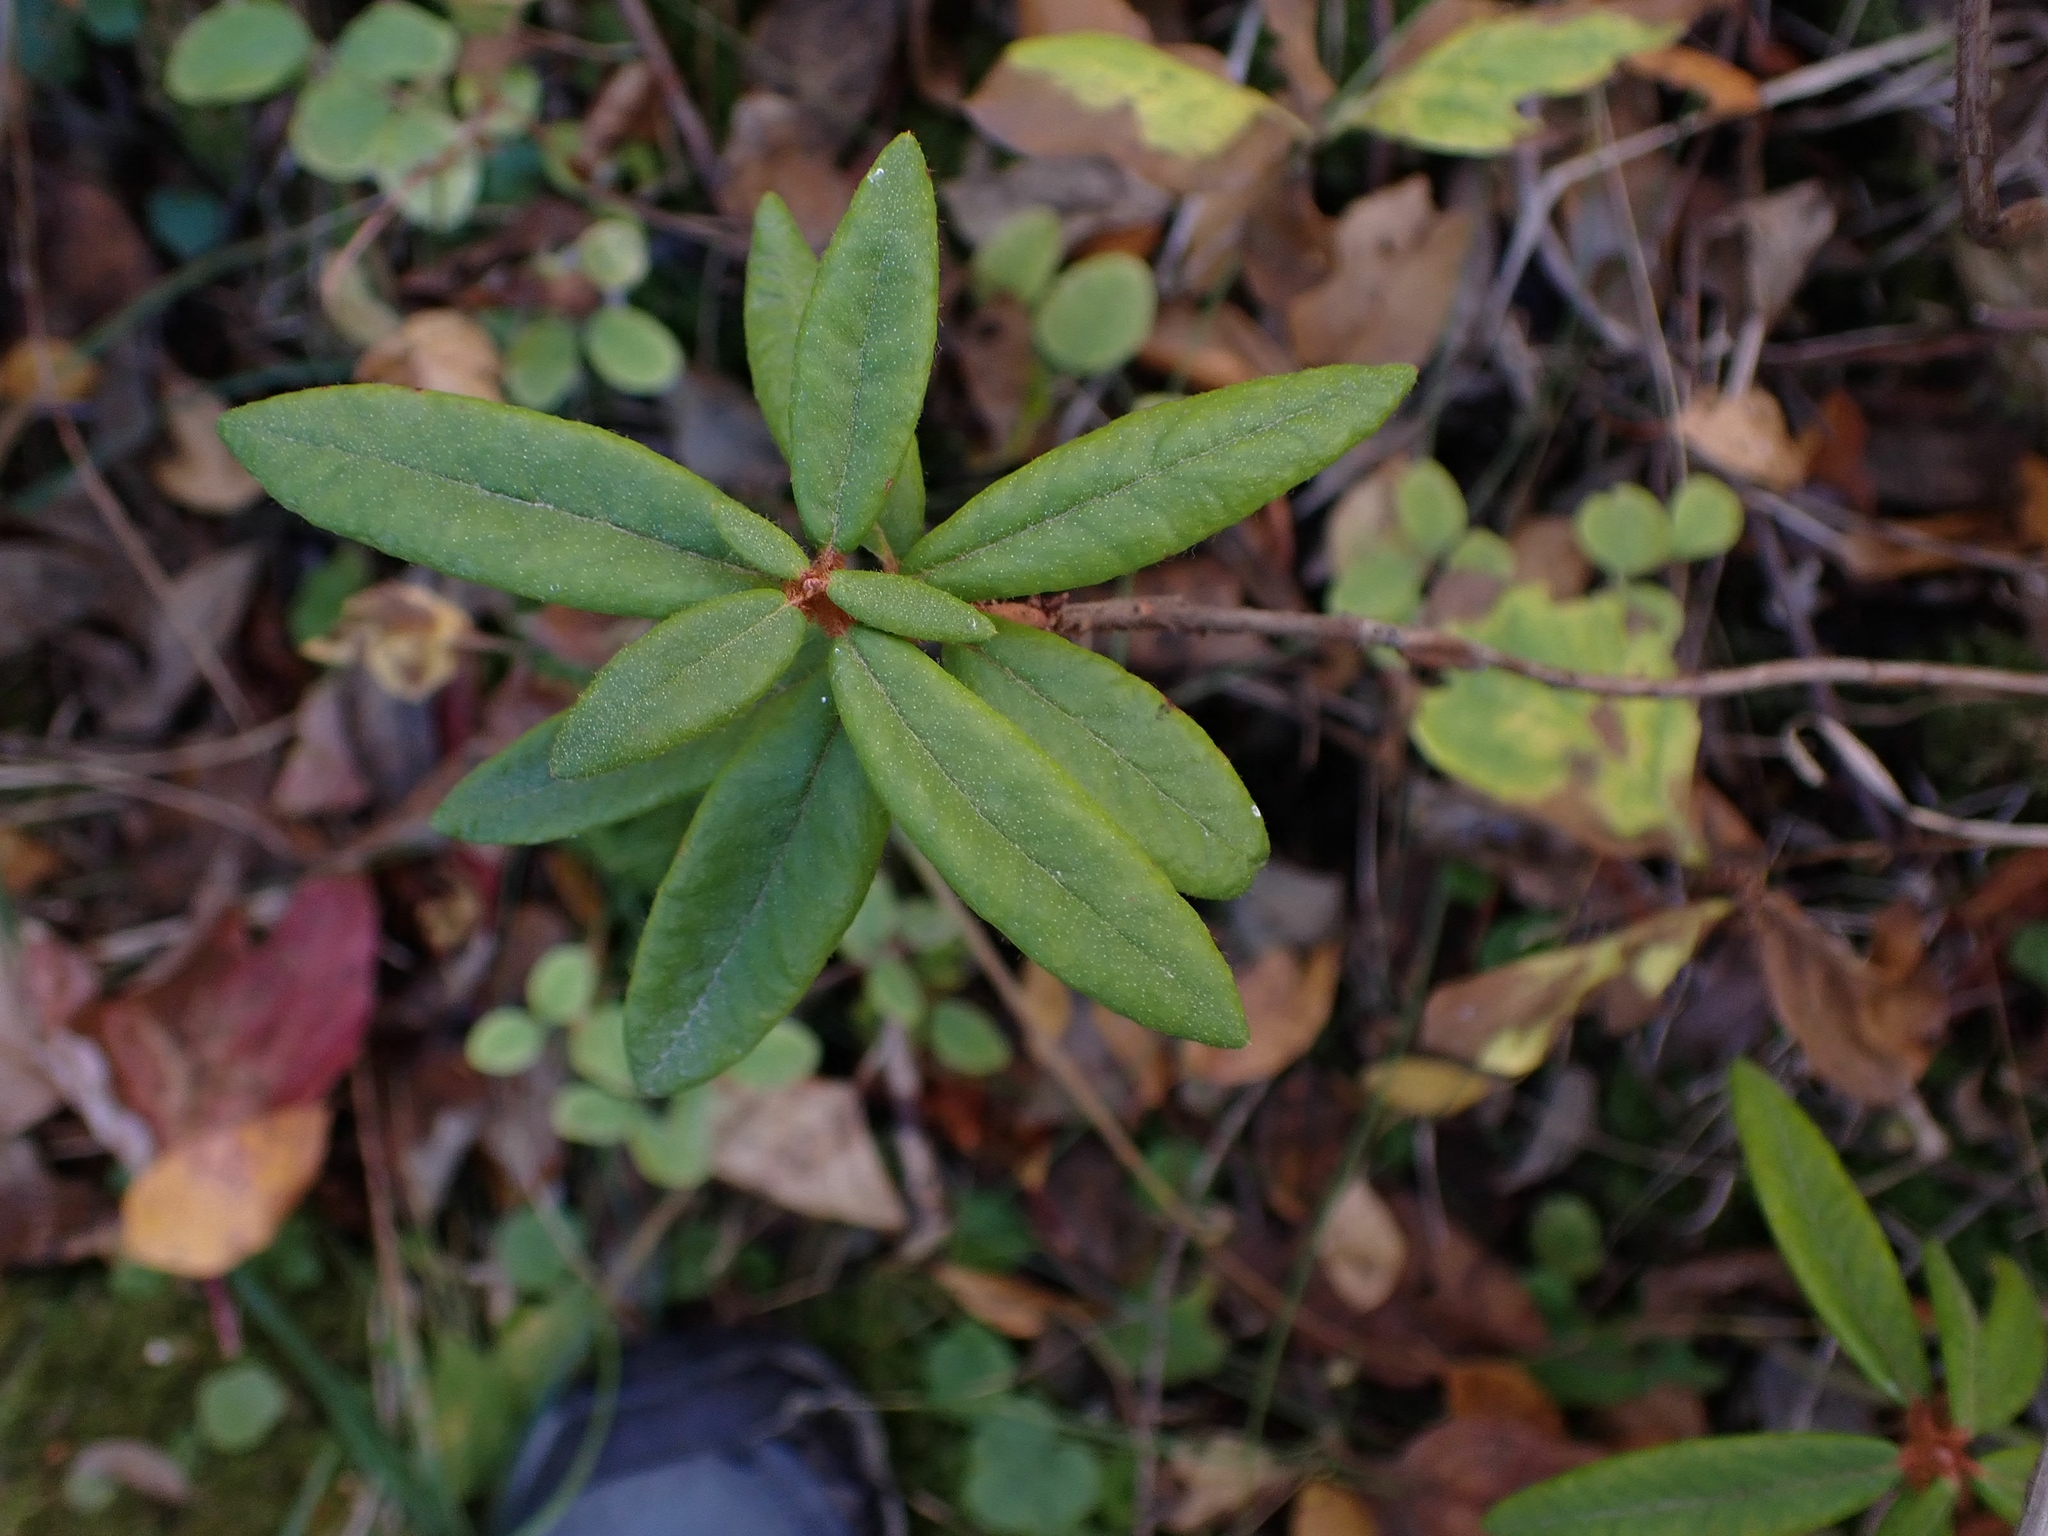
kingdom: Plantae
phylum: Tracheophyta
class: Magnoliopsida
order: Ericales
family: Ericaceae
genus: Rhododendron
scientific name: Rhododendron groenlandicum
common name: Bog labrador tea
